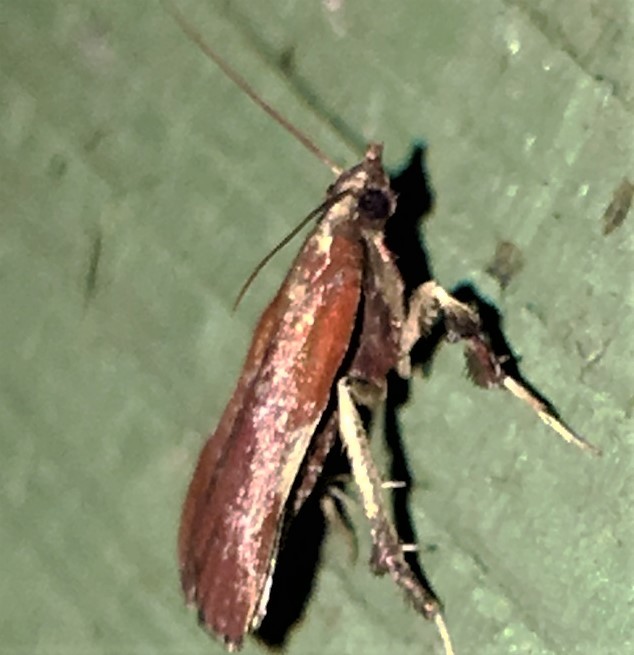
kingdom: Animalia
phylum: Arthropoda
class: Insecta
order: Lepidoptera
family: Pyralidae
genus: Galasa
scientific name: Galasa nigrinodis
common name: Boxwood leaftier moth
